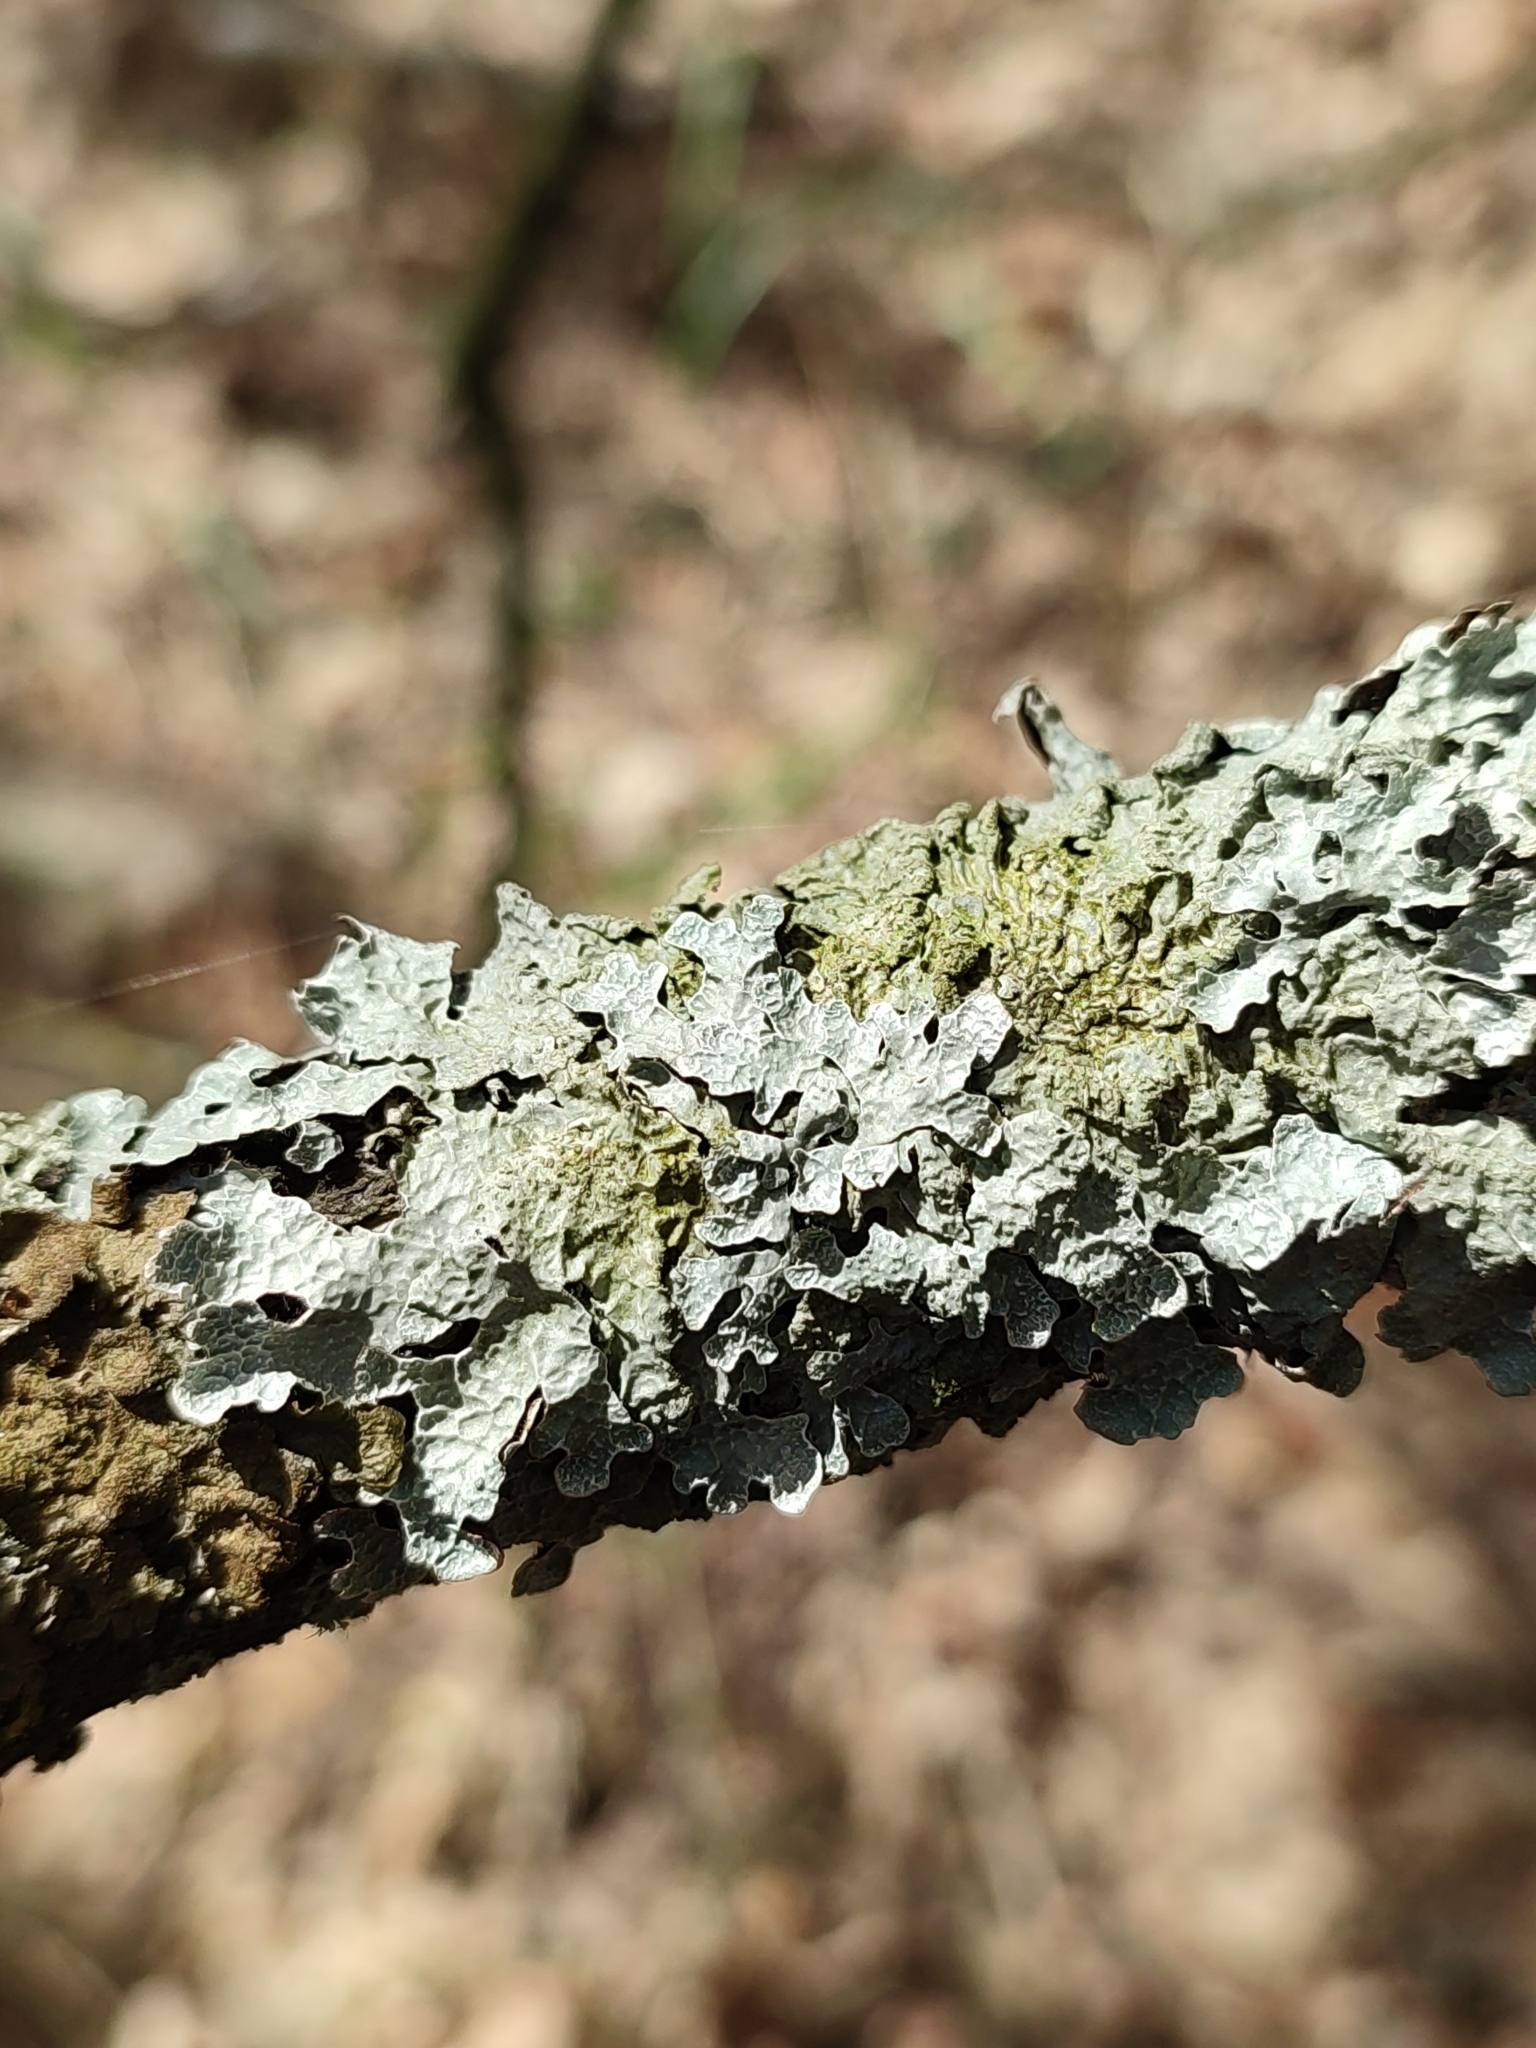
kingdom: Fungi
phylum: Ascomycota
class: Lecanoromycetes
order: Lecanorales
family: Parmeliaceae
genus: Parmelia
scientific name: Parmelia sulcata
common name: Netted shield lichen
